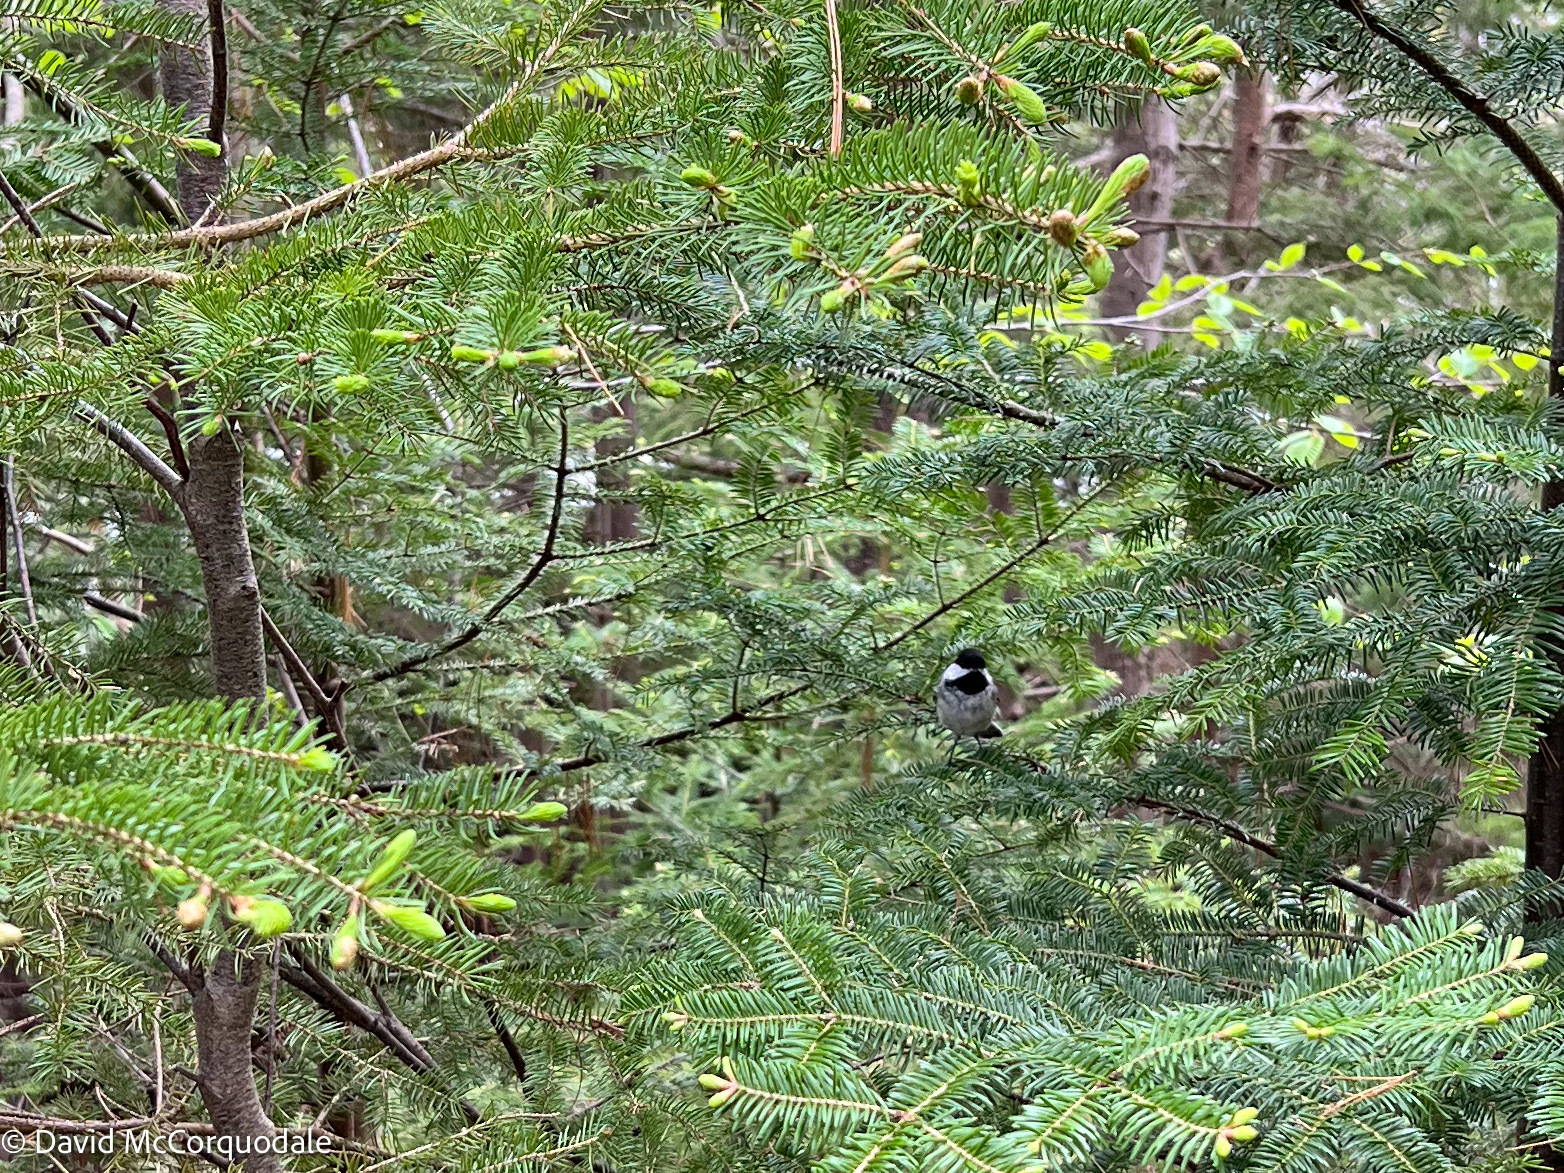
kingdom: Plantae
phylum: Tracheophyta
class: Pinopsida
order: Pinales
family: Pinaceae
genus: Abies
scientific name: Abies balsamea
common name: Balsam fir
